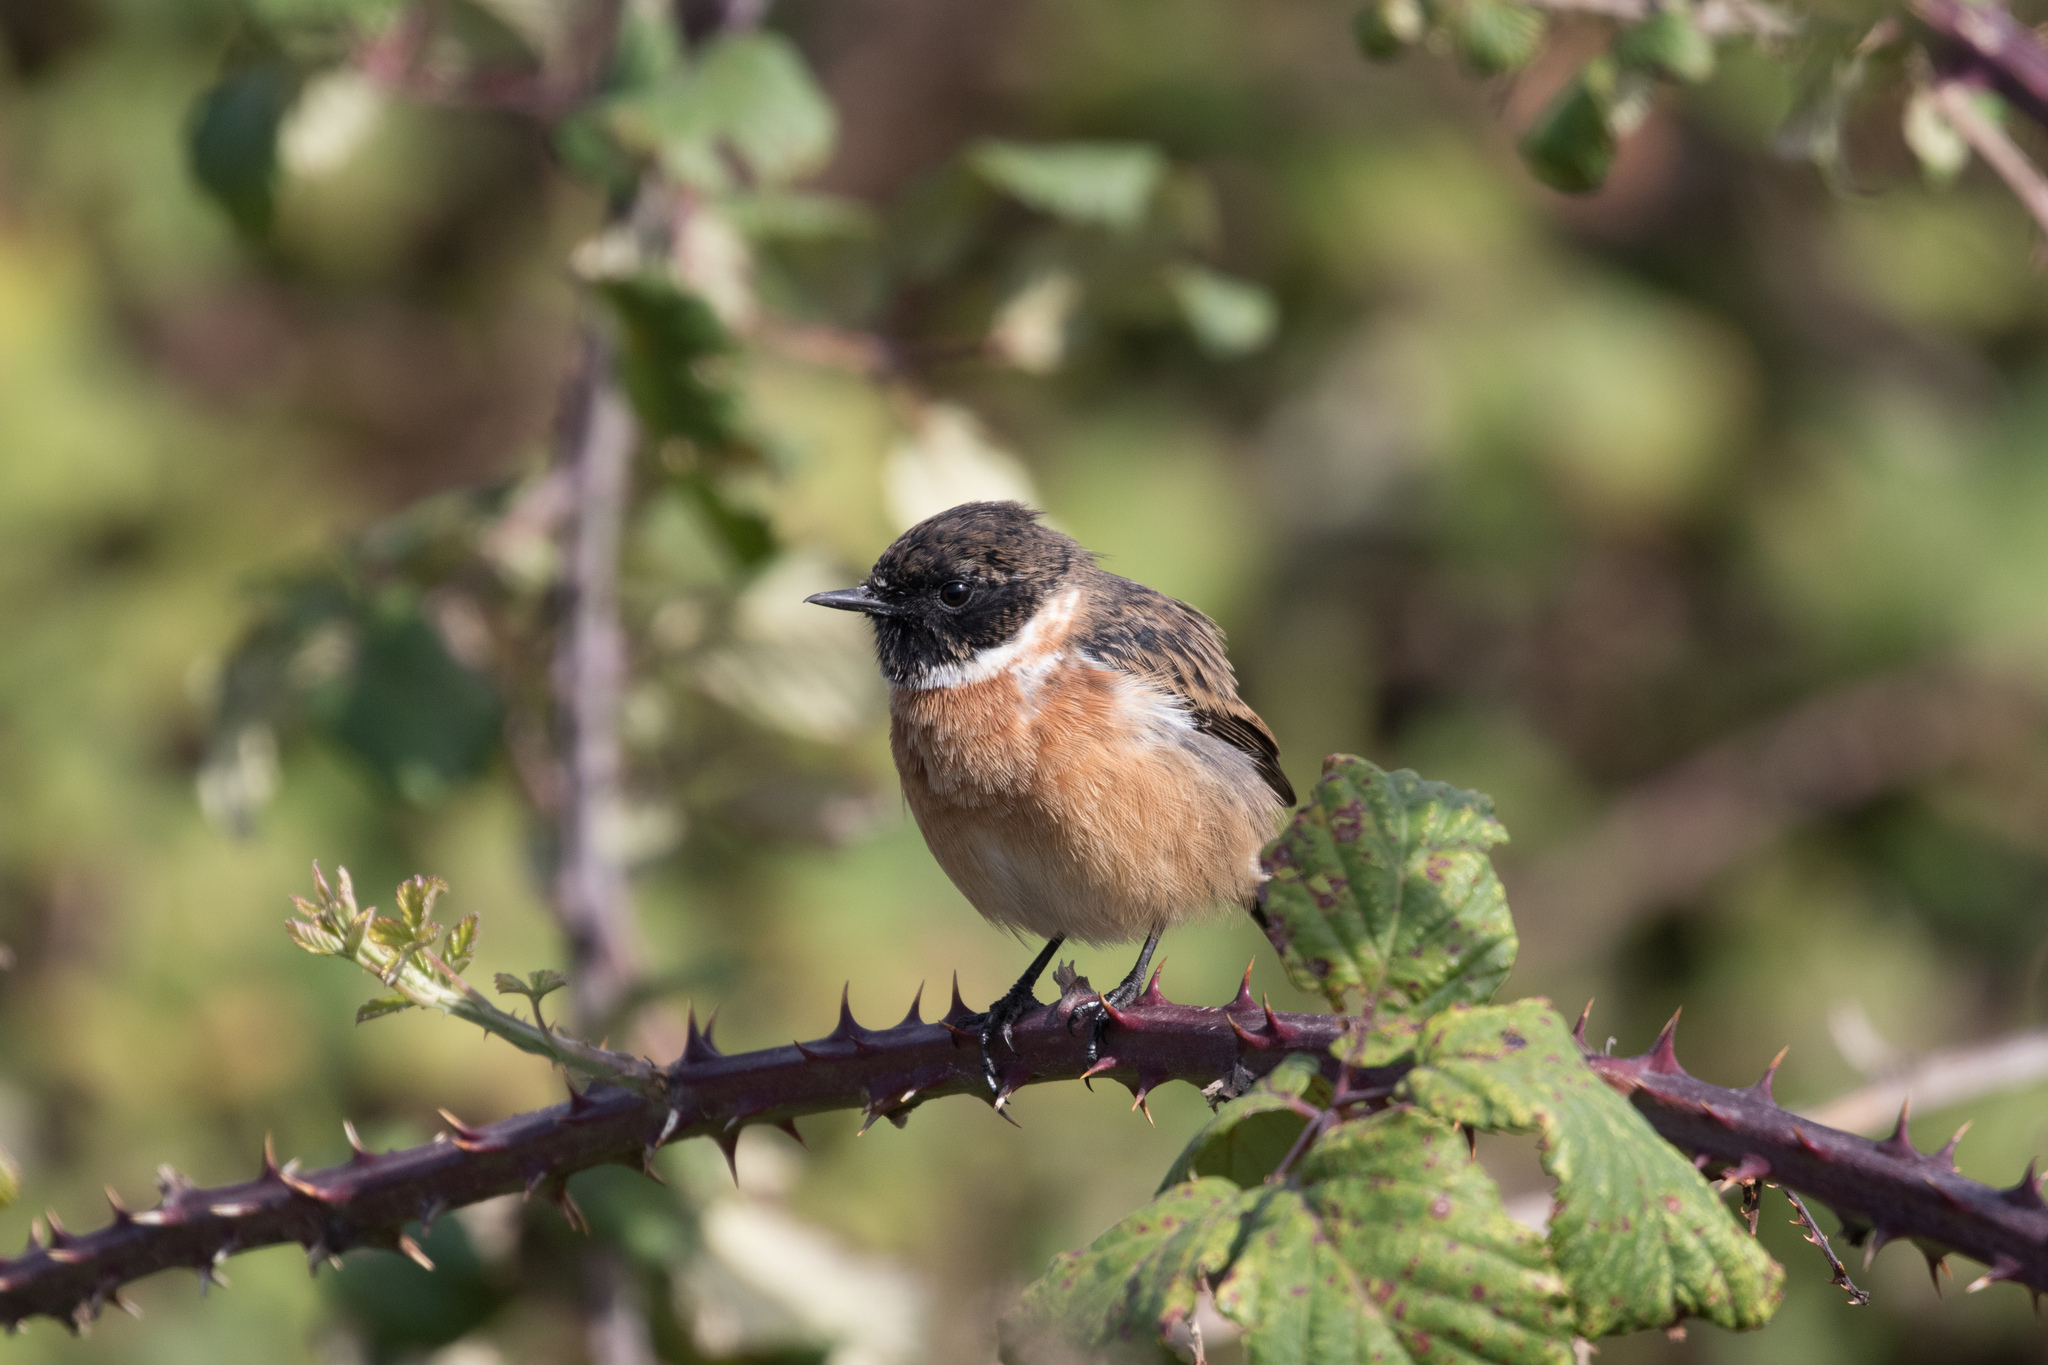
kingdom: Animalia
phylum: Chordata
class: Aves
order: Passeriformes
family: Muscicapidae
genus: Saxicola
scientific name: Saxicola rubicola
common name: European stonechat
